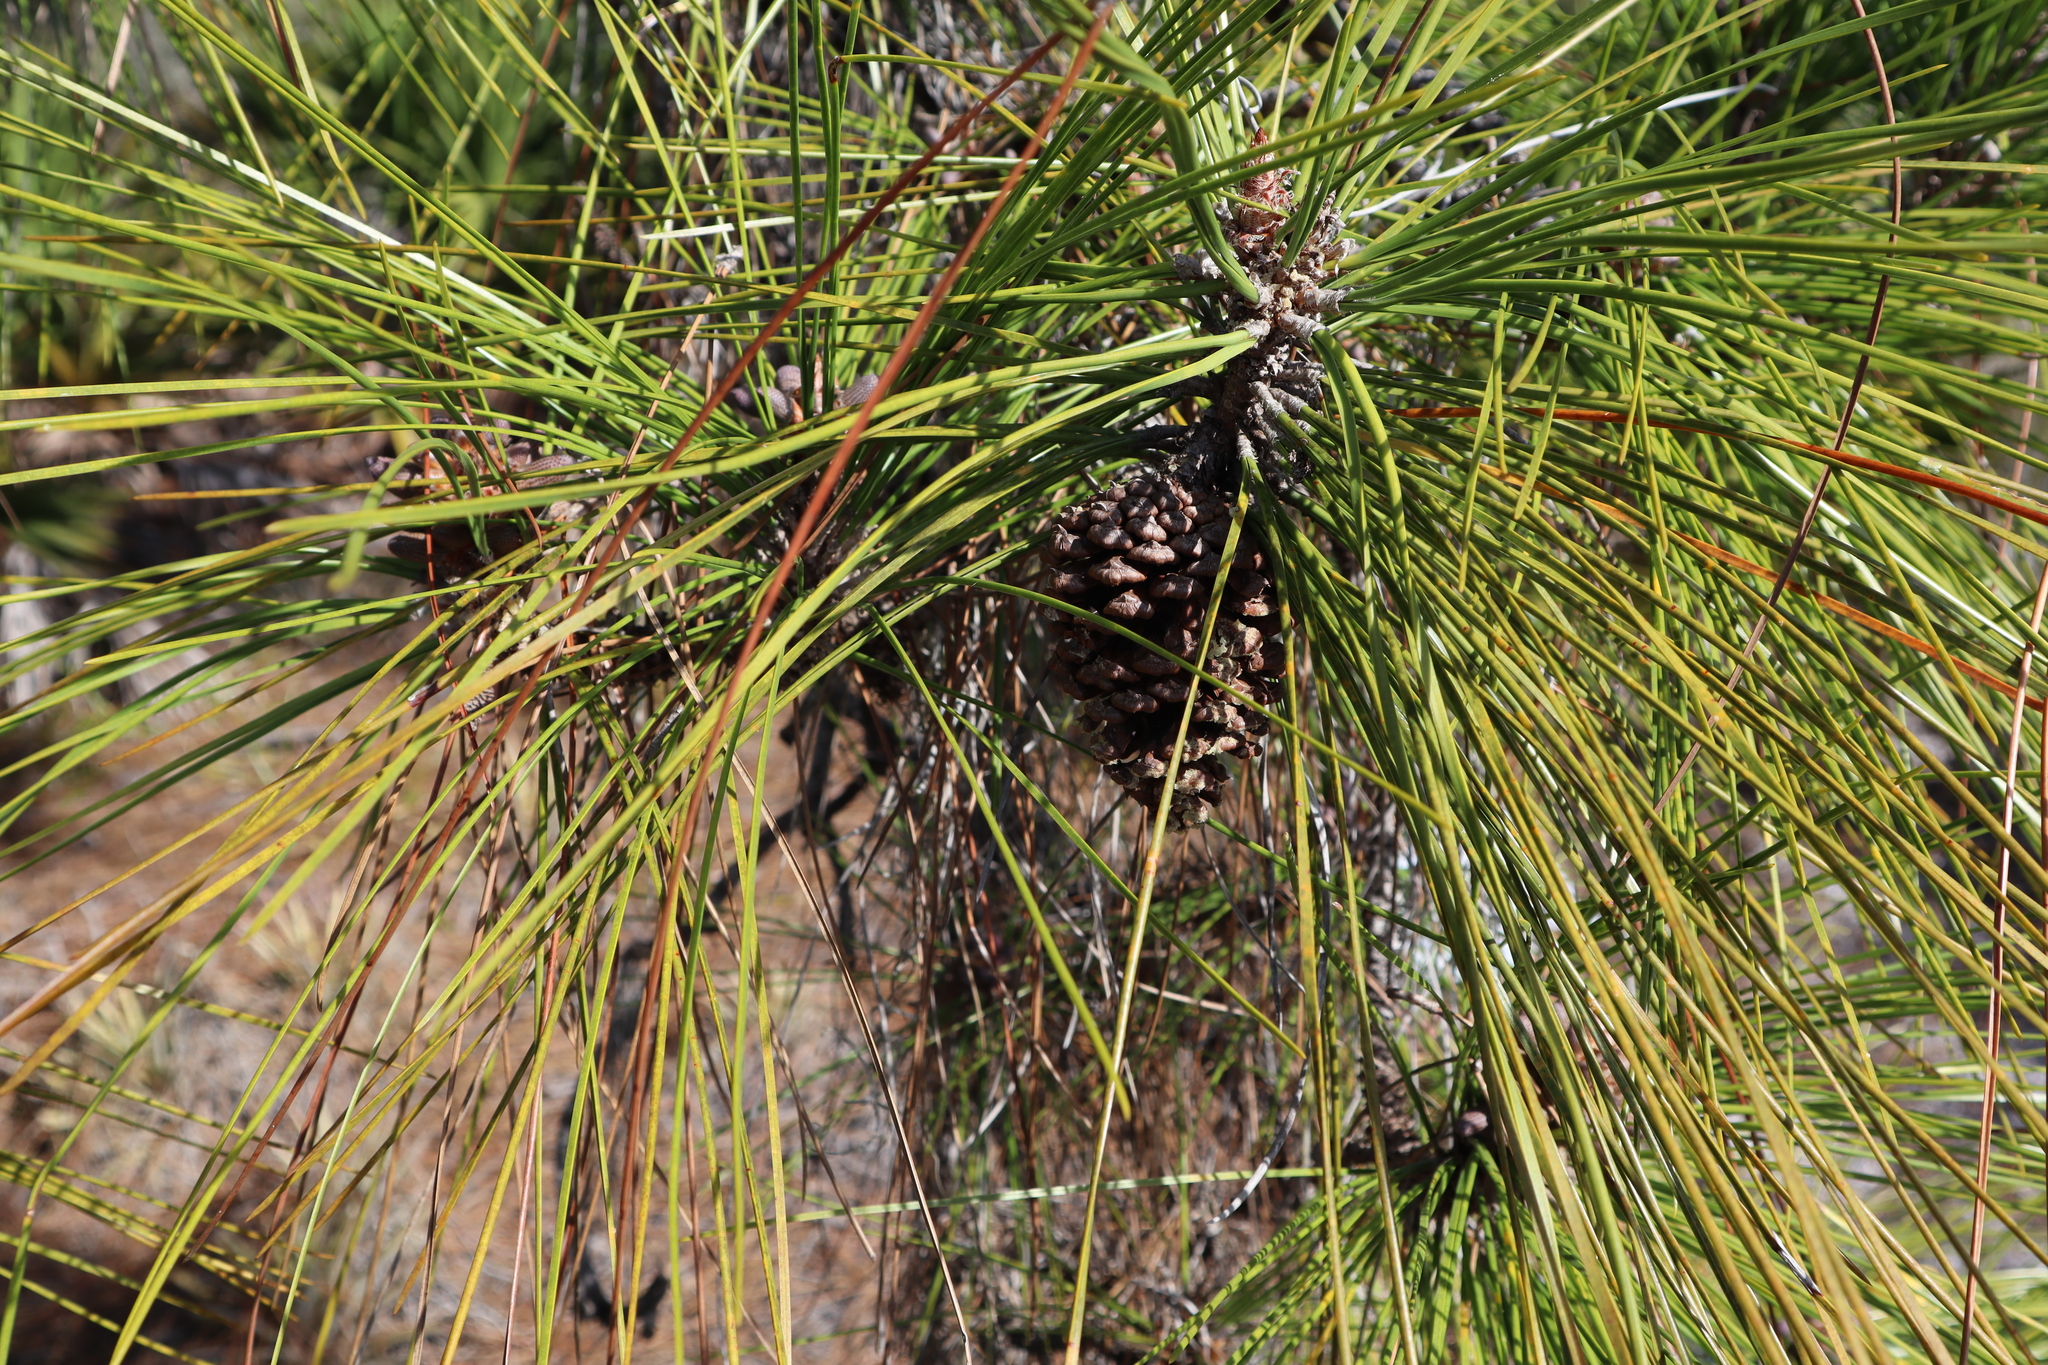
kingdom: Plantae
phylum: Tracheophyta
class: Pinopsida
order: Pinales
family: Pinaceae
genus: Pinus
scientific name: Pinus elliottii
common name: Slash pine
